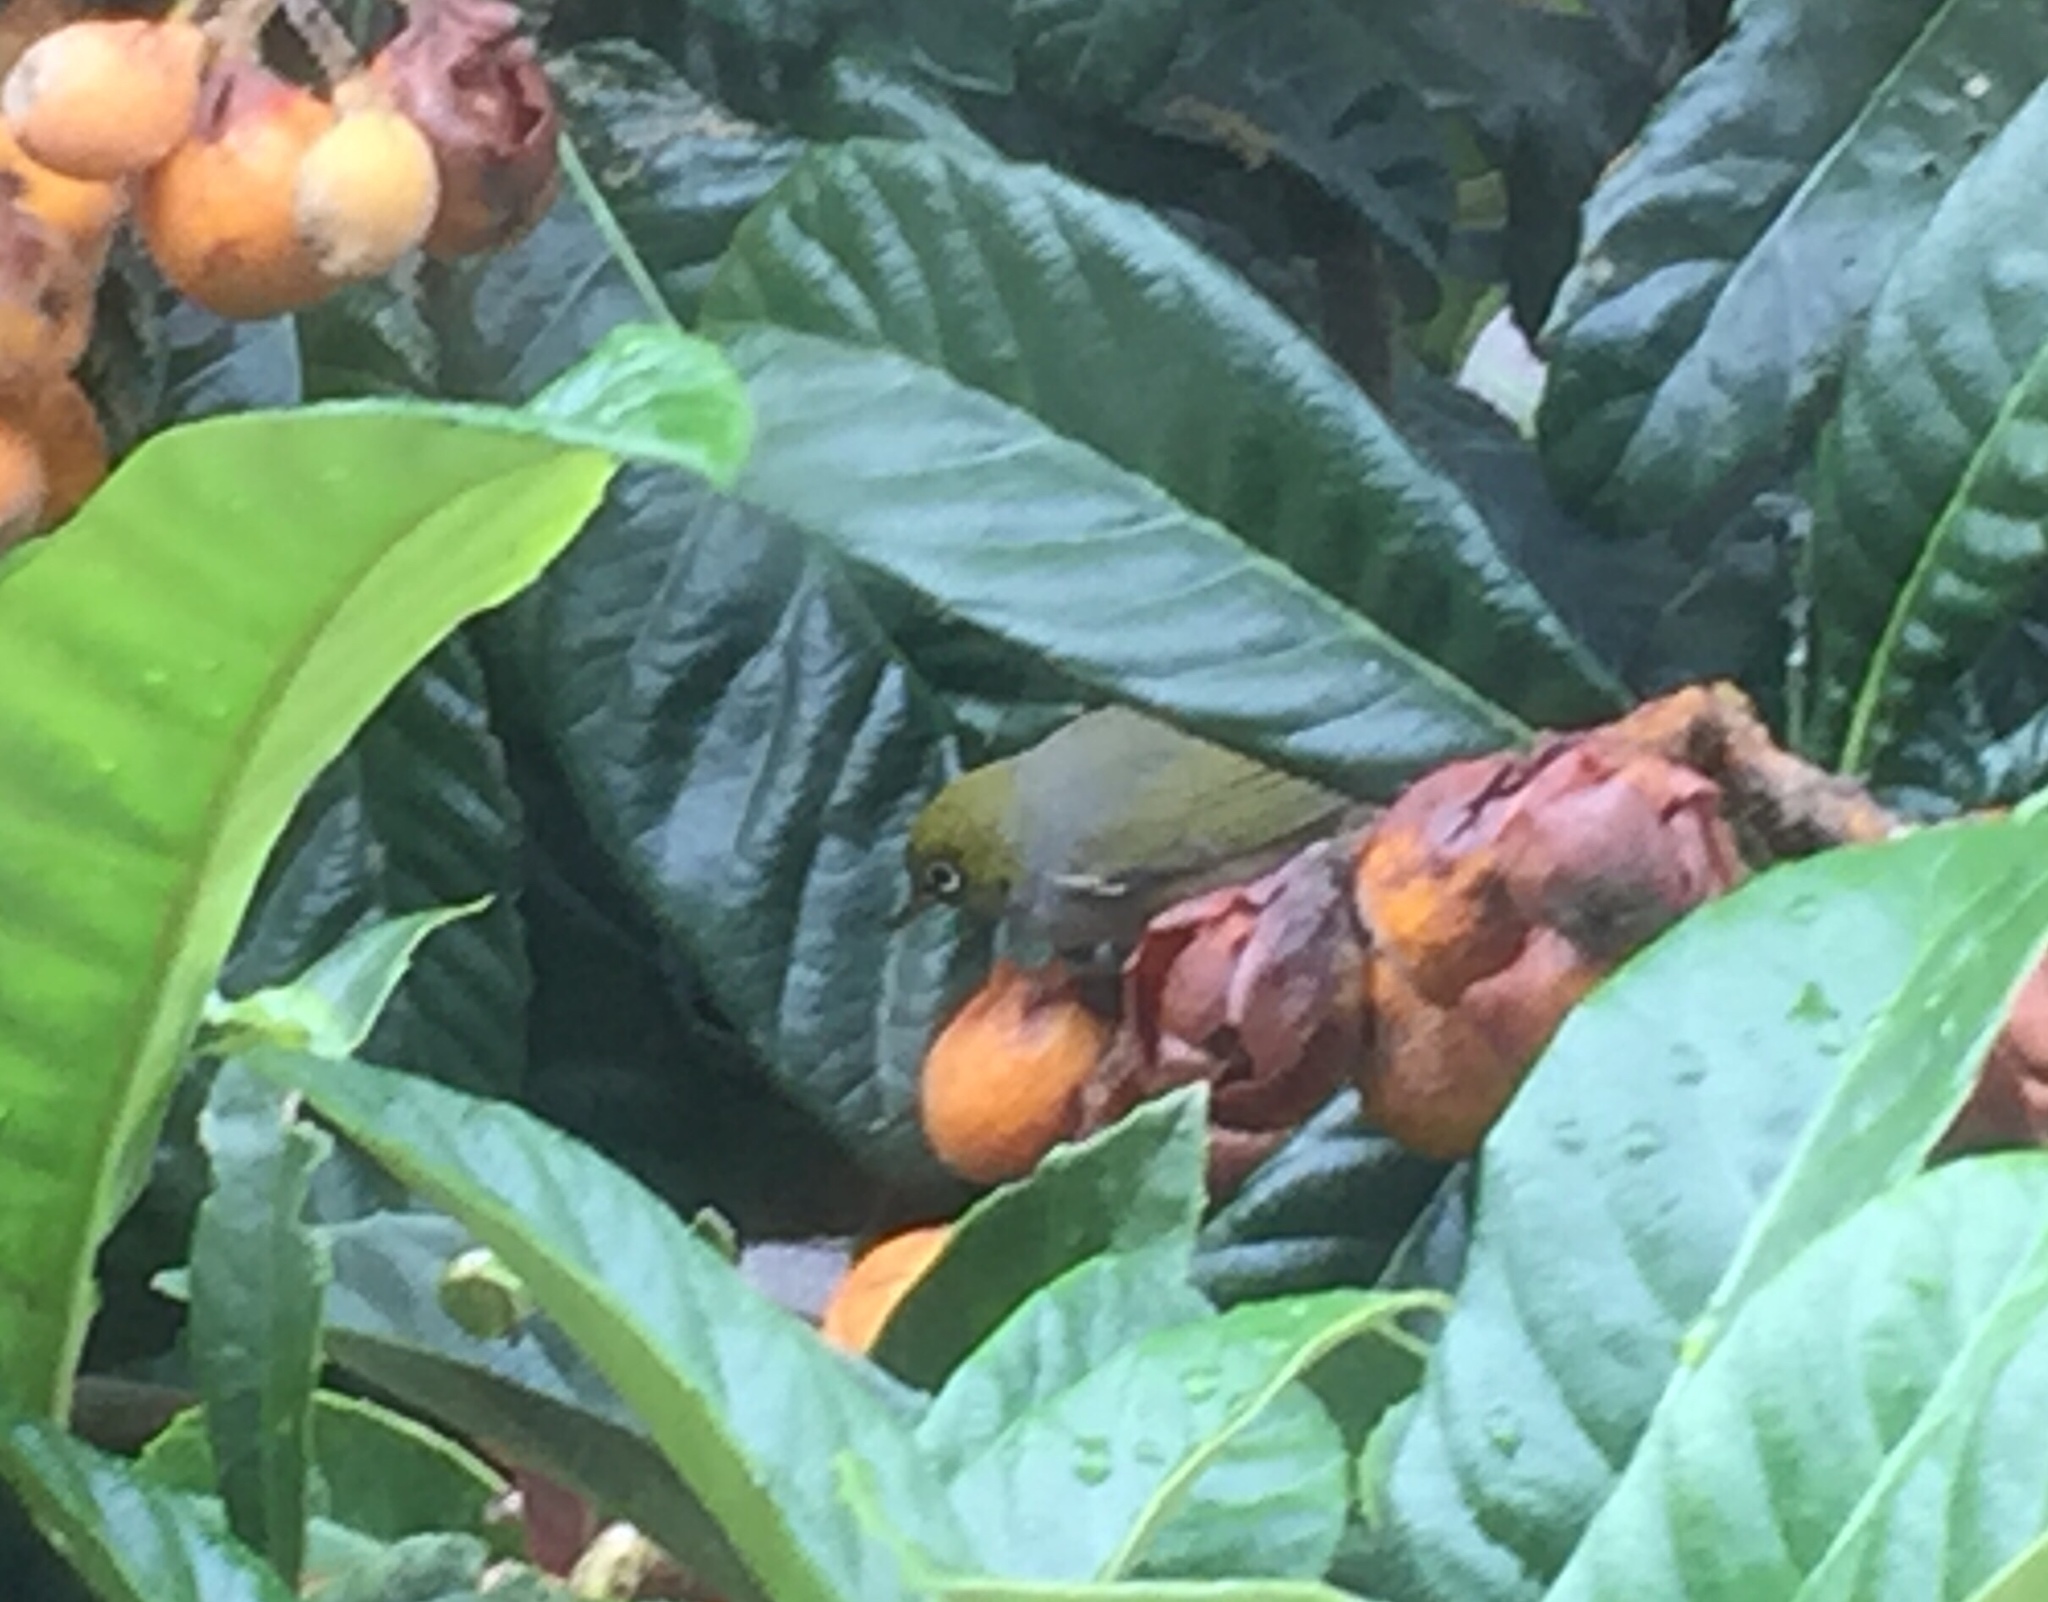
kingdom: Animalia
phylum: Chordata
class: Aves
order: Passeriformes
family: Zosteropidae
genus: Zosterops
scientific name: Zosterops lateralis
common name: Silvereye
